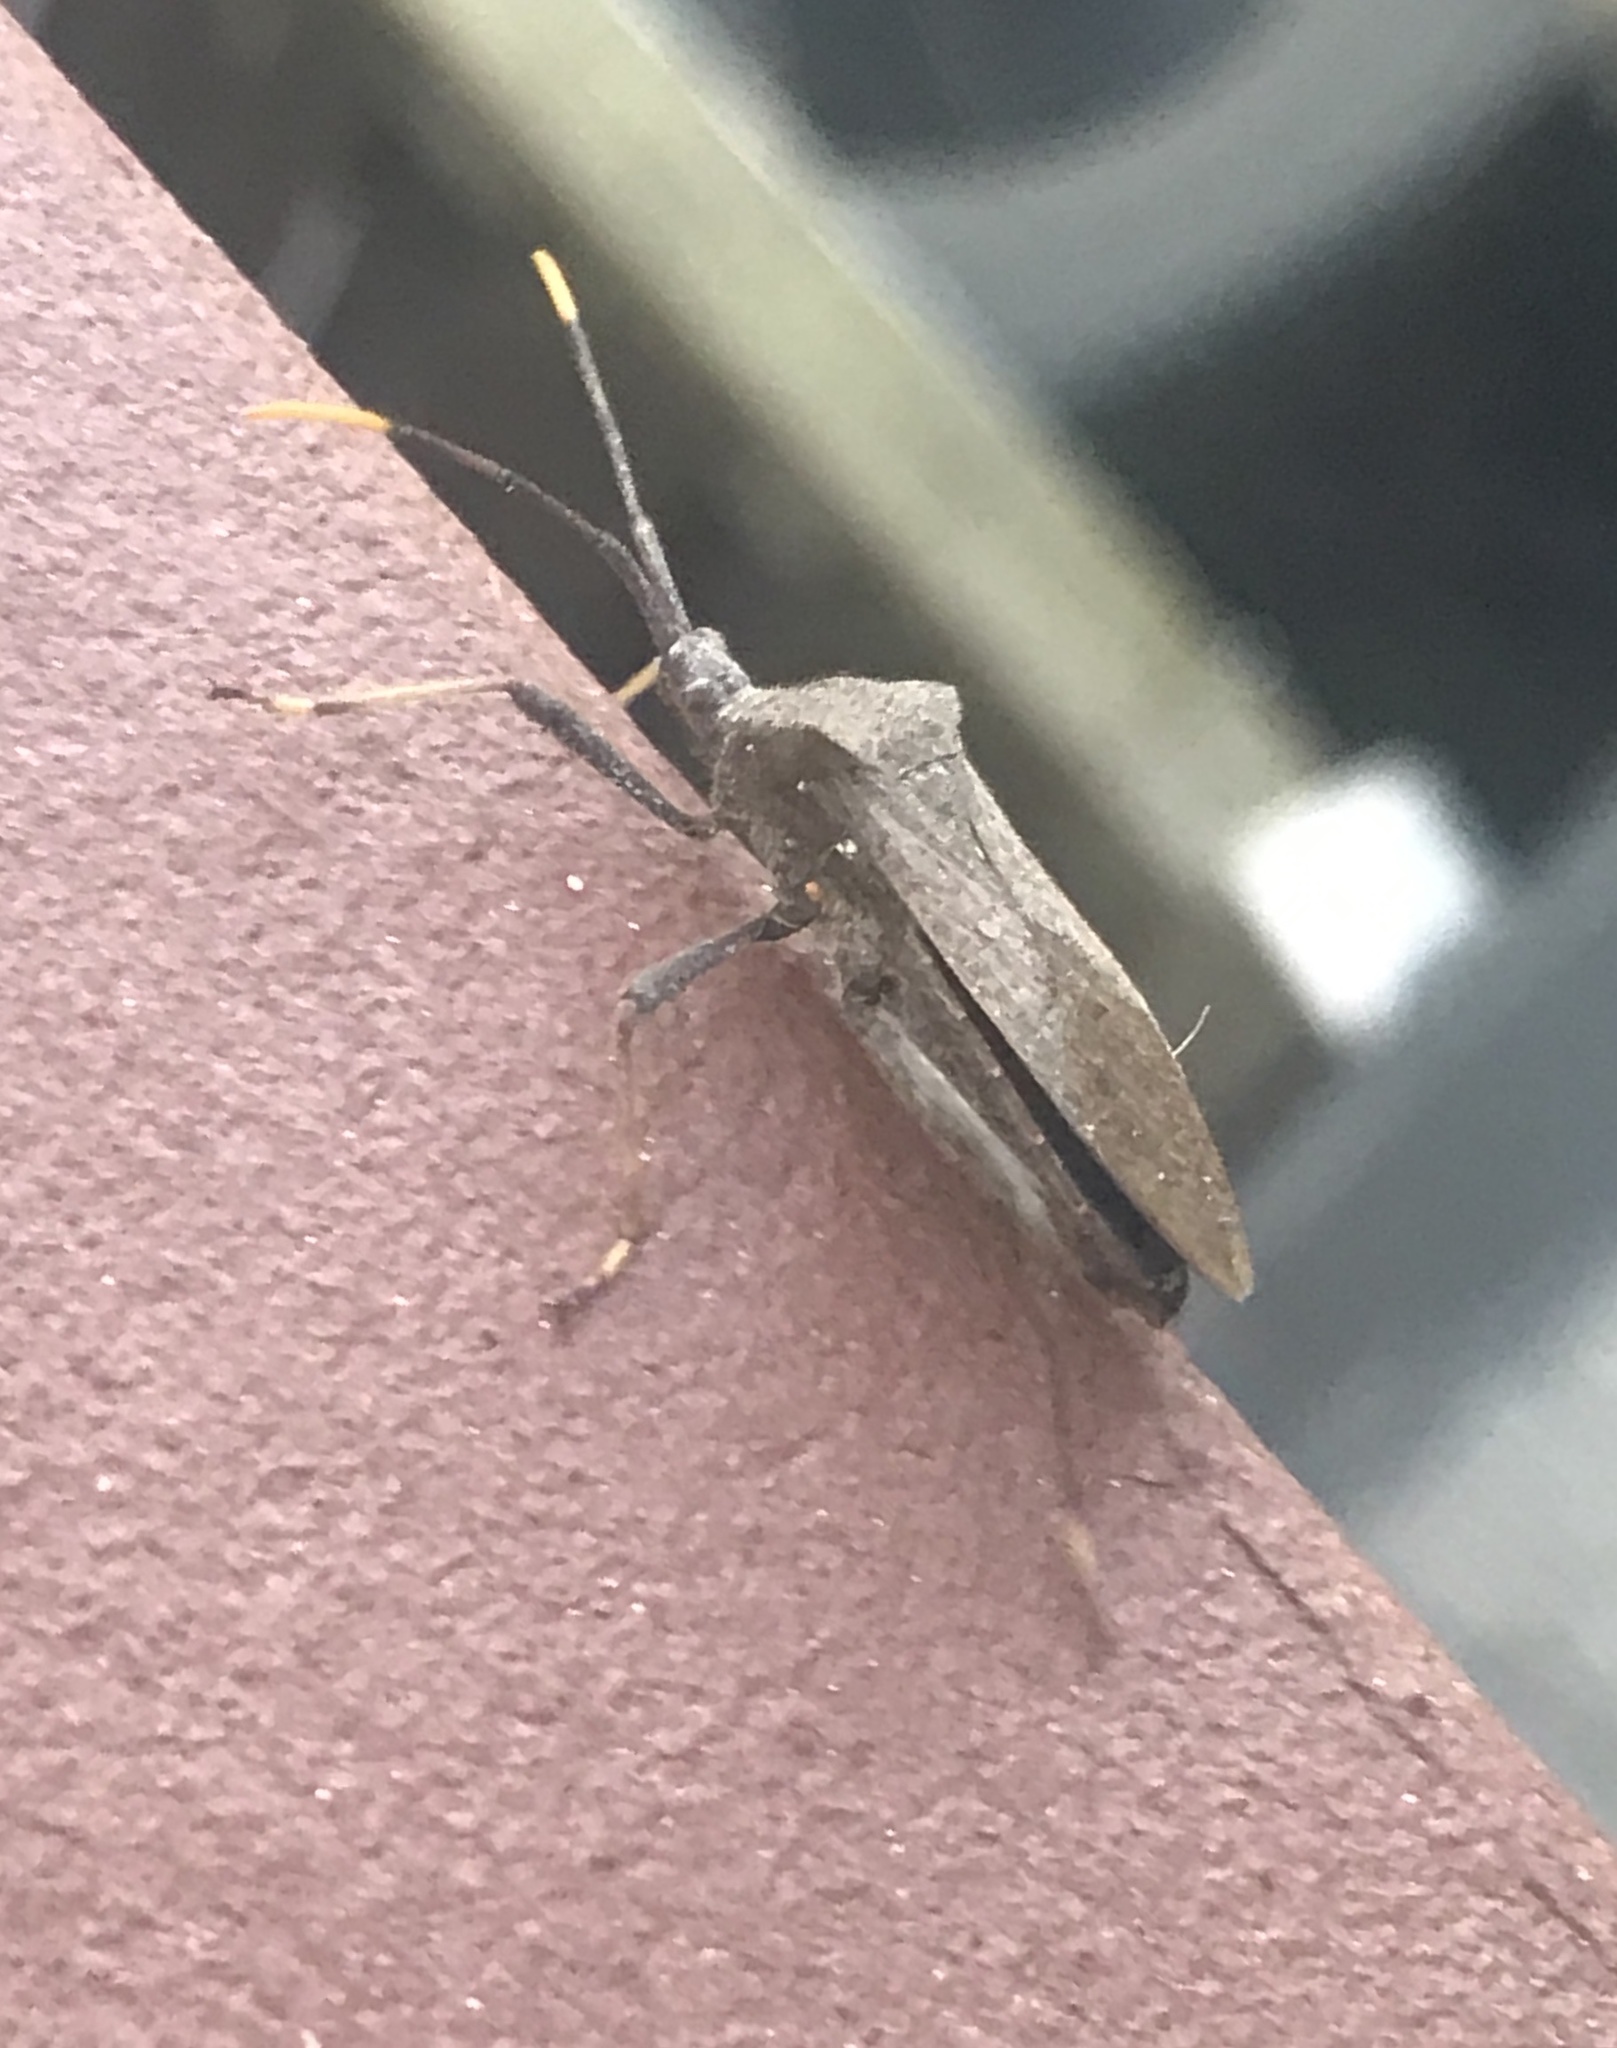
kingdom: Animalia
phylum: Arthropoda
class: Insecta
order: Hemiptera
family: Coreidae
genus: Acanthocephala
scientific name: Acanthocephala terminalis
